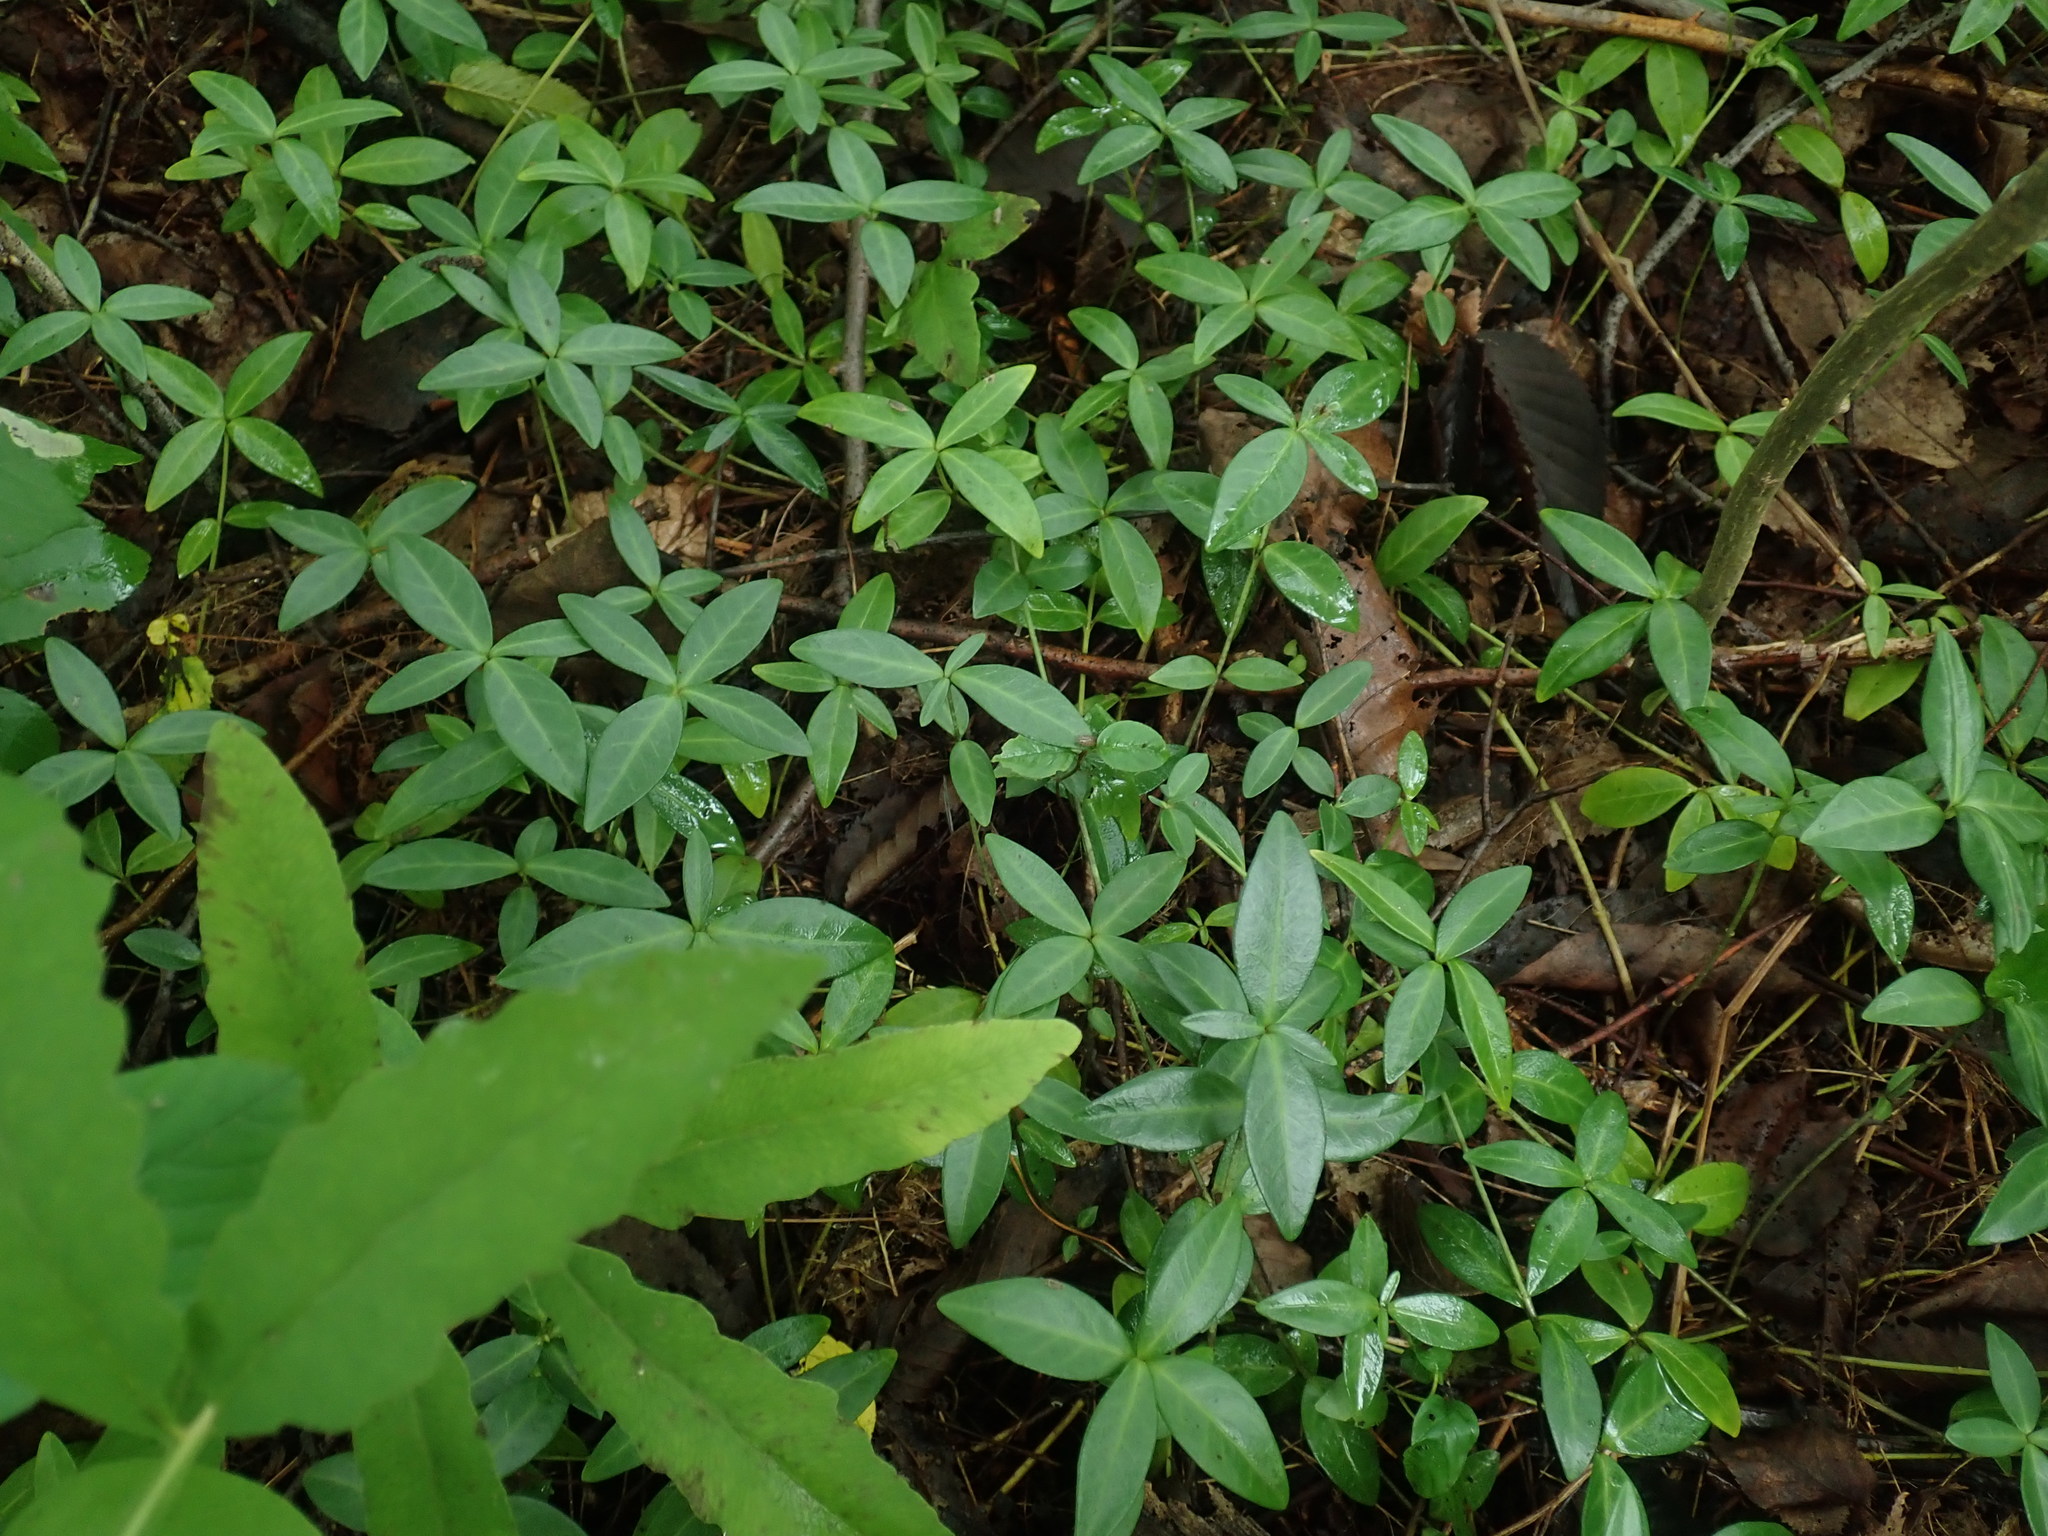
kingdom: Plantae
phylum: Tracheophyta
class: Magnoliopsida
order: Gentianales
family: Apocynaceae
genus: Vinca
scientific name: Vinca minor
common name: Lesser periwinkle
